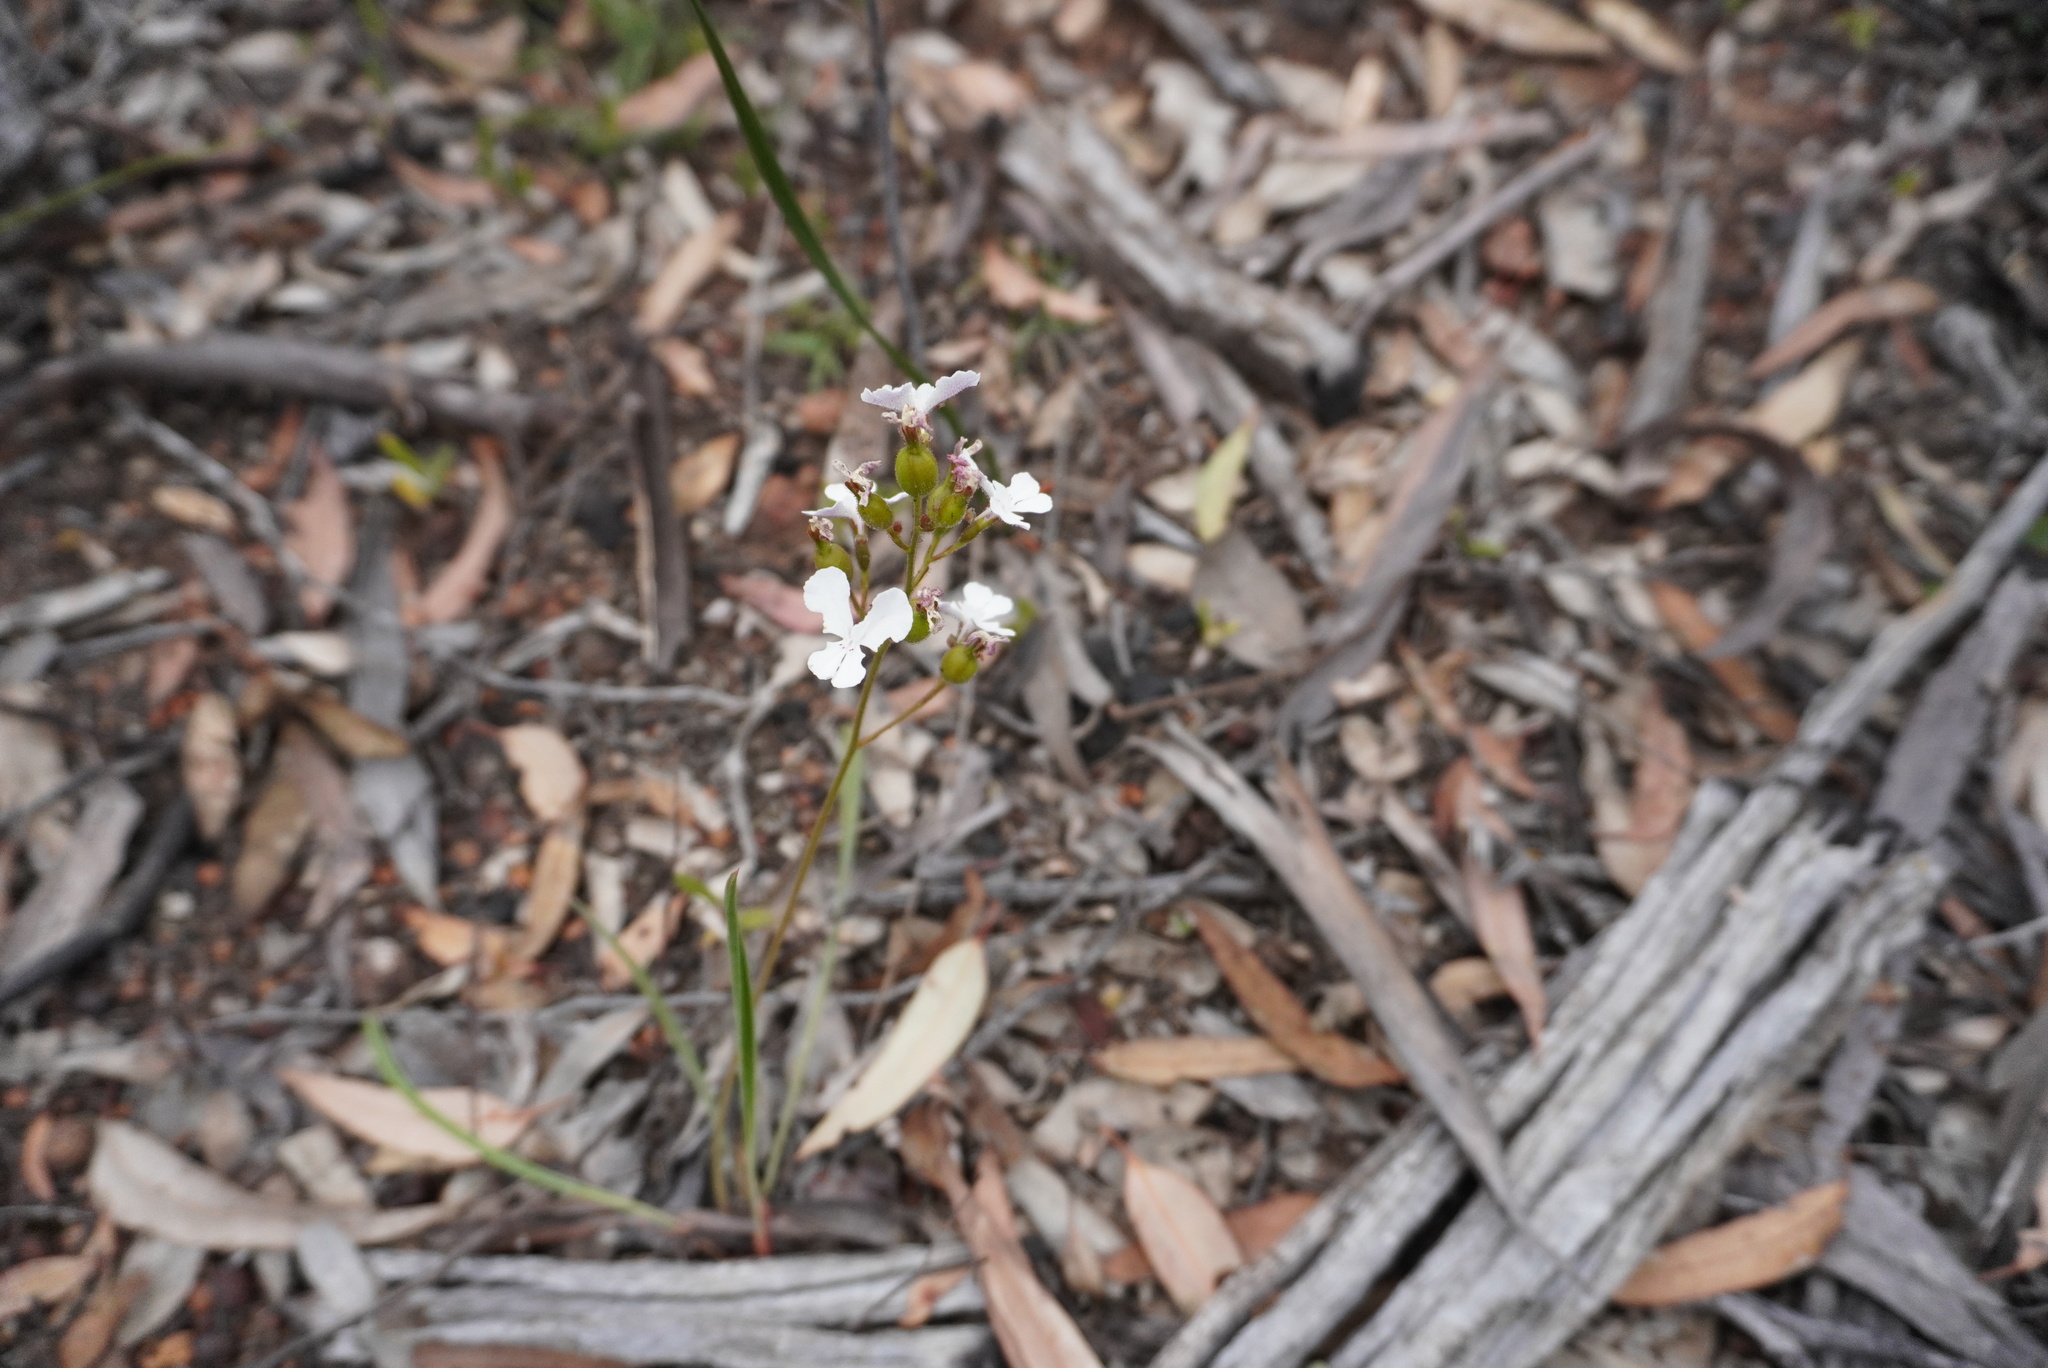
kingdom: Plantae
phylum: Tracheophyta
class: Magnoliopsida
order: Asterales
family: Stylidiaceae
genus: Stylidium
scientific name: Stylidium caricifolium
